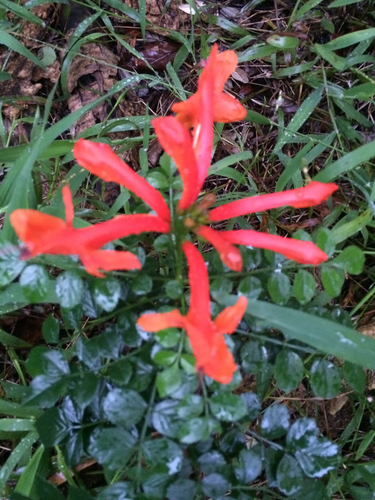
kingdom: Plantae
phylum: Tracheophyta
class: Magnoliopsida
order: Lamiales
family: Bignoniaceae
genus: Tecomaria
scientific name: Tecomaria capensis
